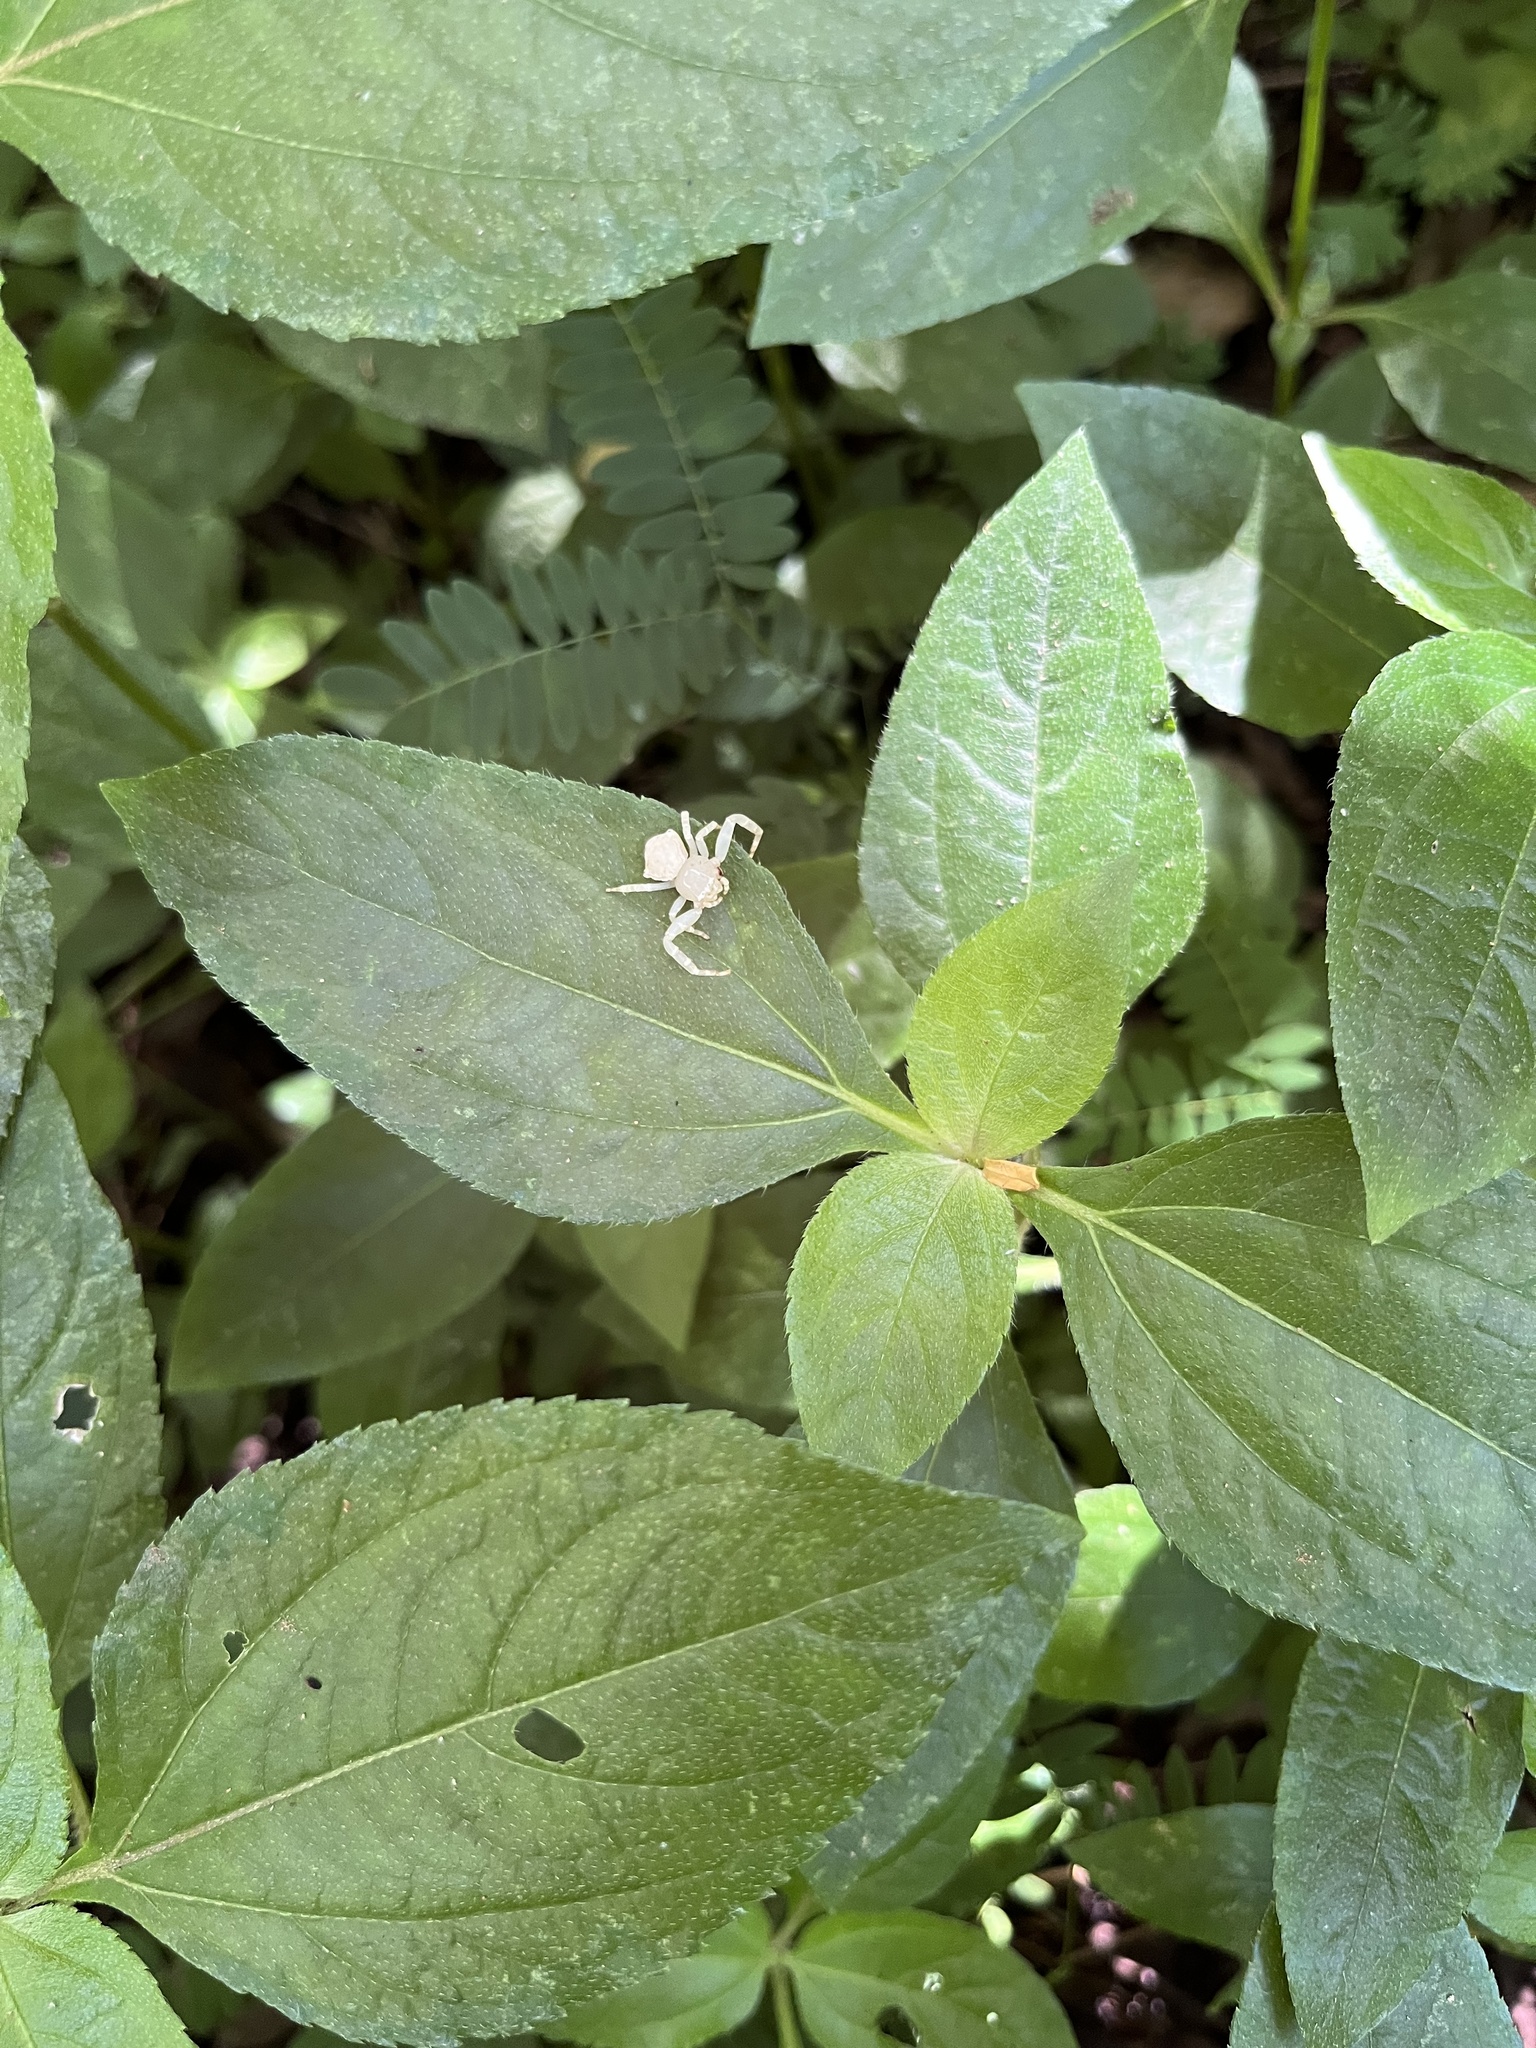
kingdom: Animalia
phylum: Arthropoda
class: Arachnida
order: Araneae
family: Thomisidae
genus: Thomisus
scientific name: Thomisus spectabilis
